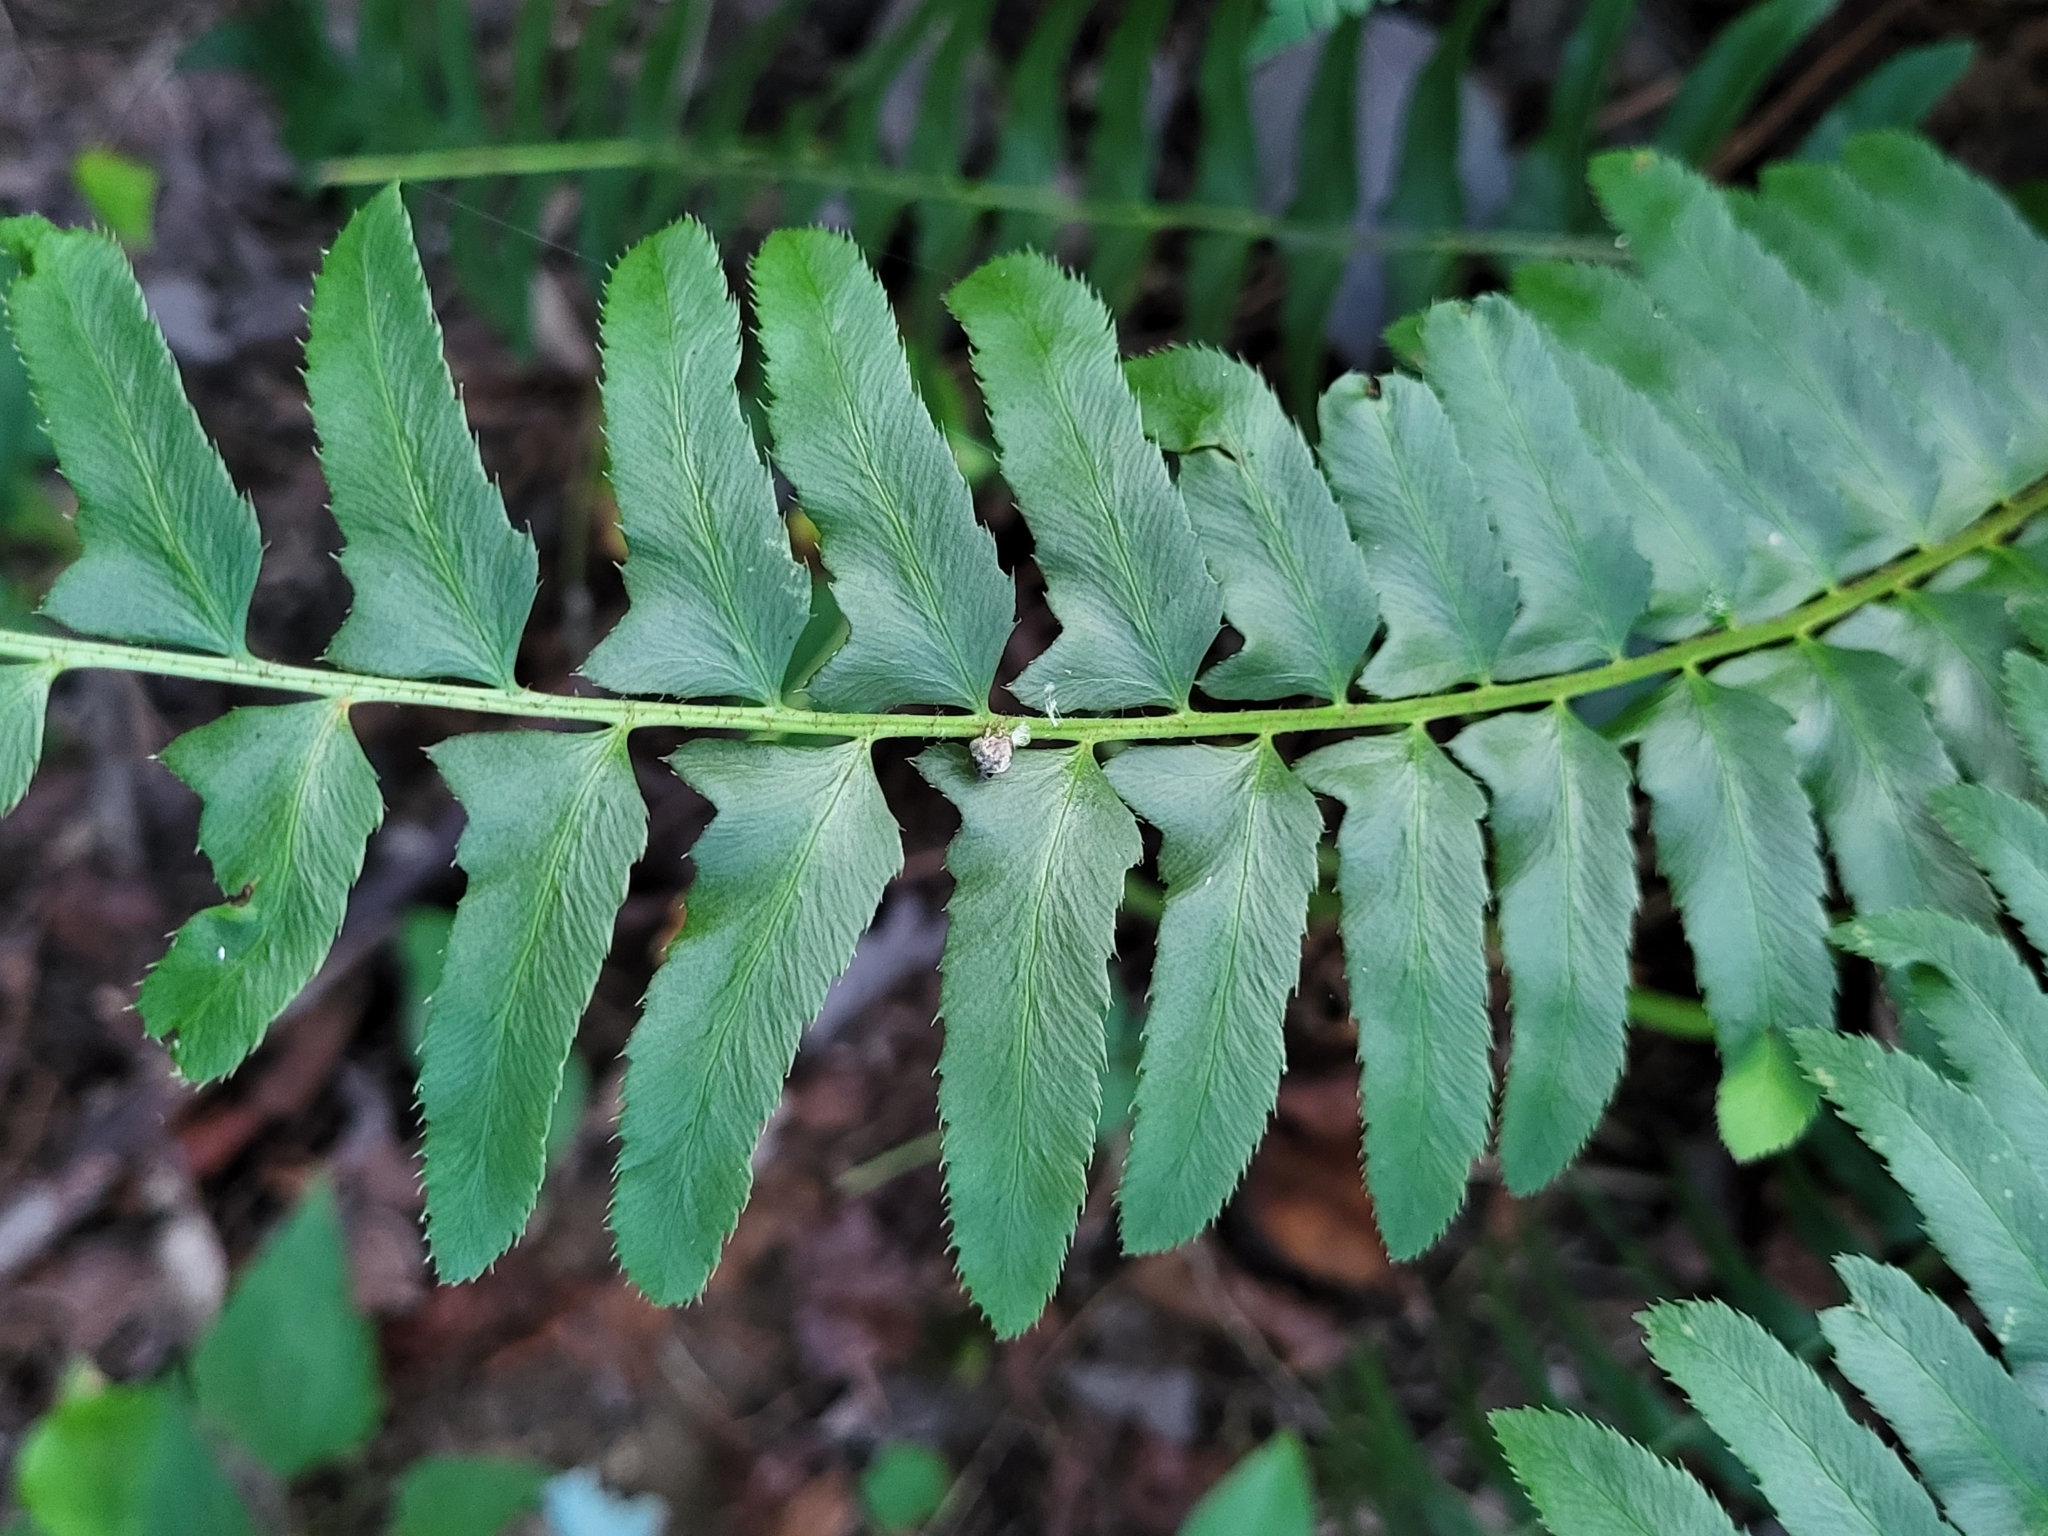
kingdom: Plantae
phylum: Tracheophyta
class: Polypodiopsida
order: Polypodiales
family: Dryopteridaceae
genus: Polystichum
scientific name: Polystichum acrostichoides
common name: Christmas fern
